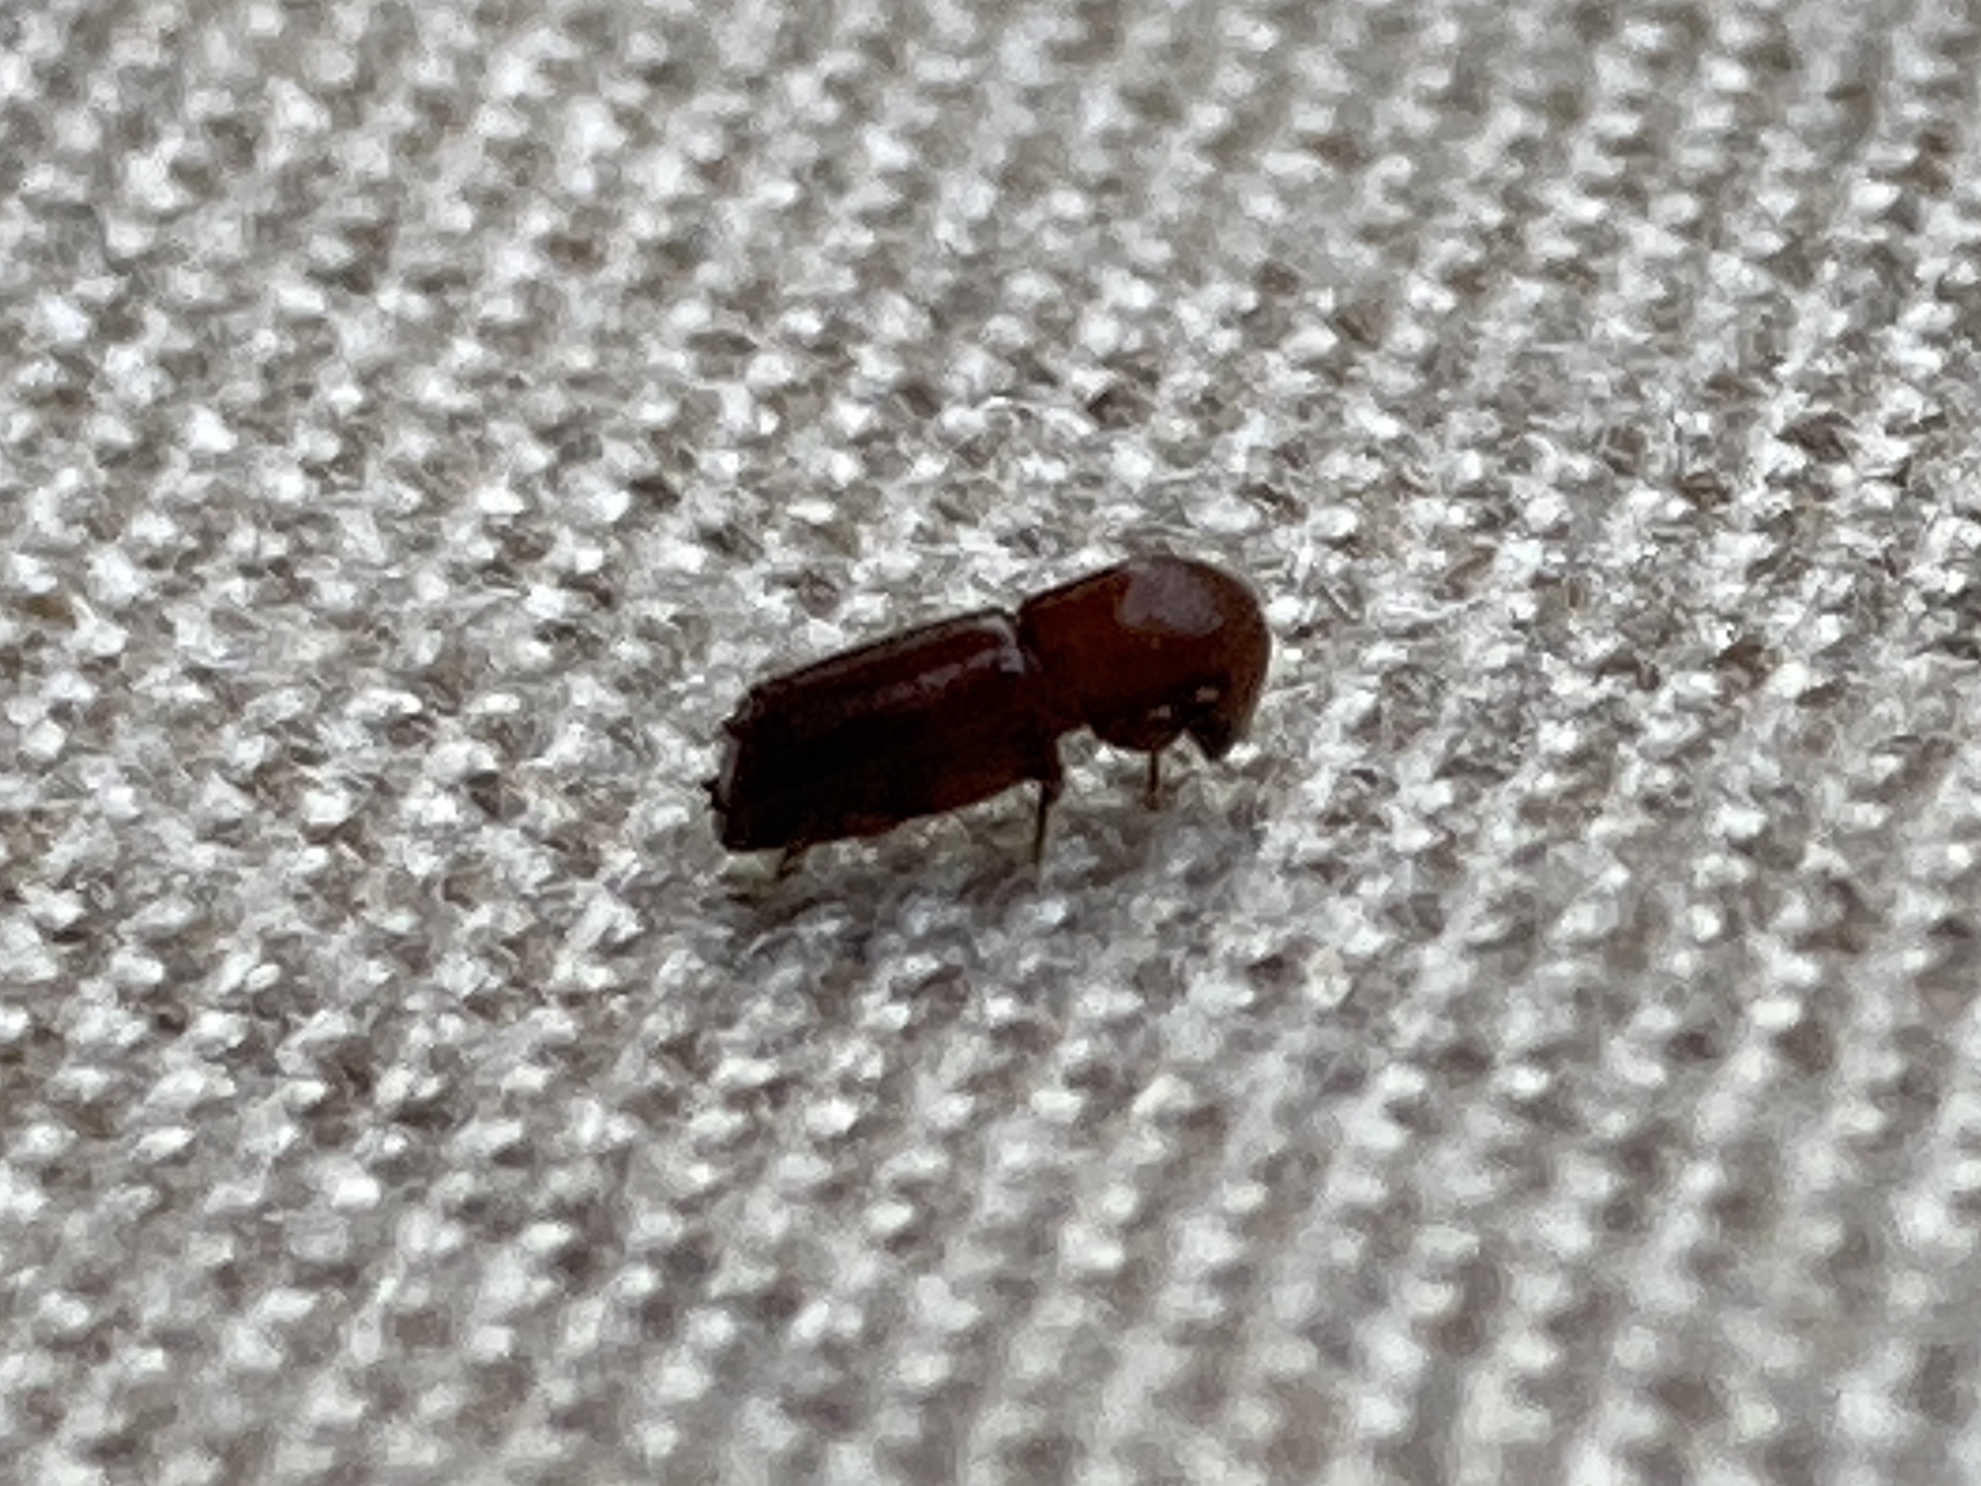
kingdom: Animalia
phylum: Arthropoda
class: Insecta
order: Coleoptera
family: Curculionidae
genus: Xyleborus
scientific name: Xyleborus celsus
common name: Weevil
